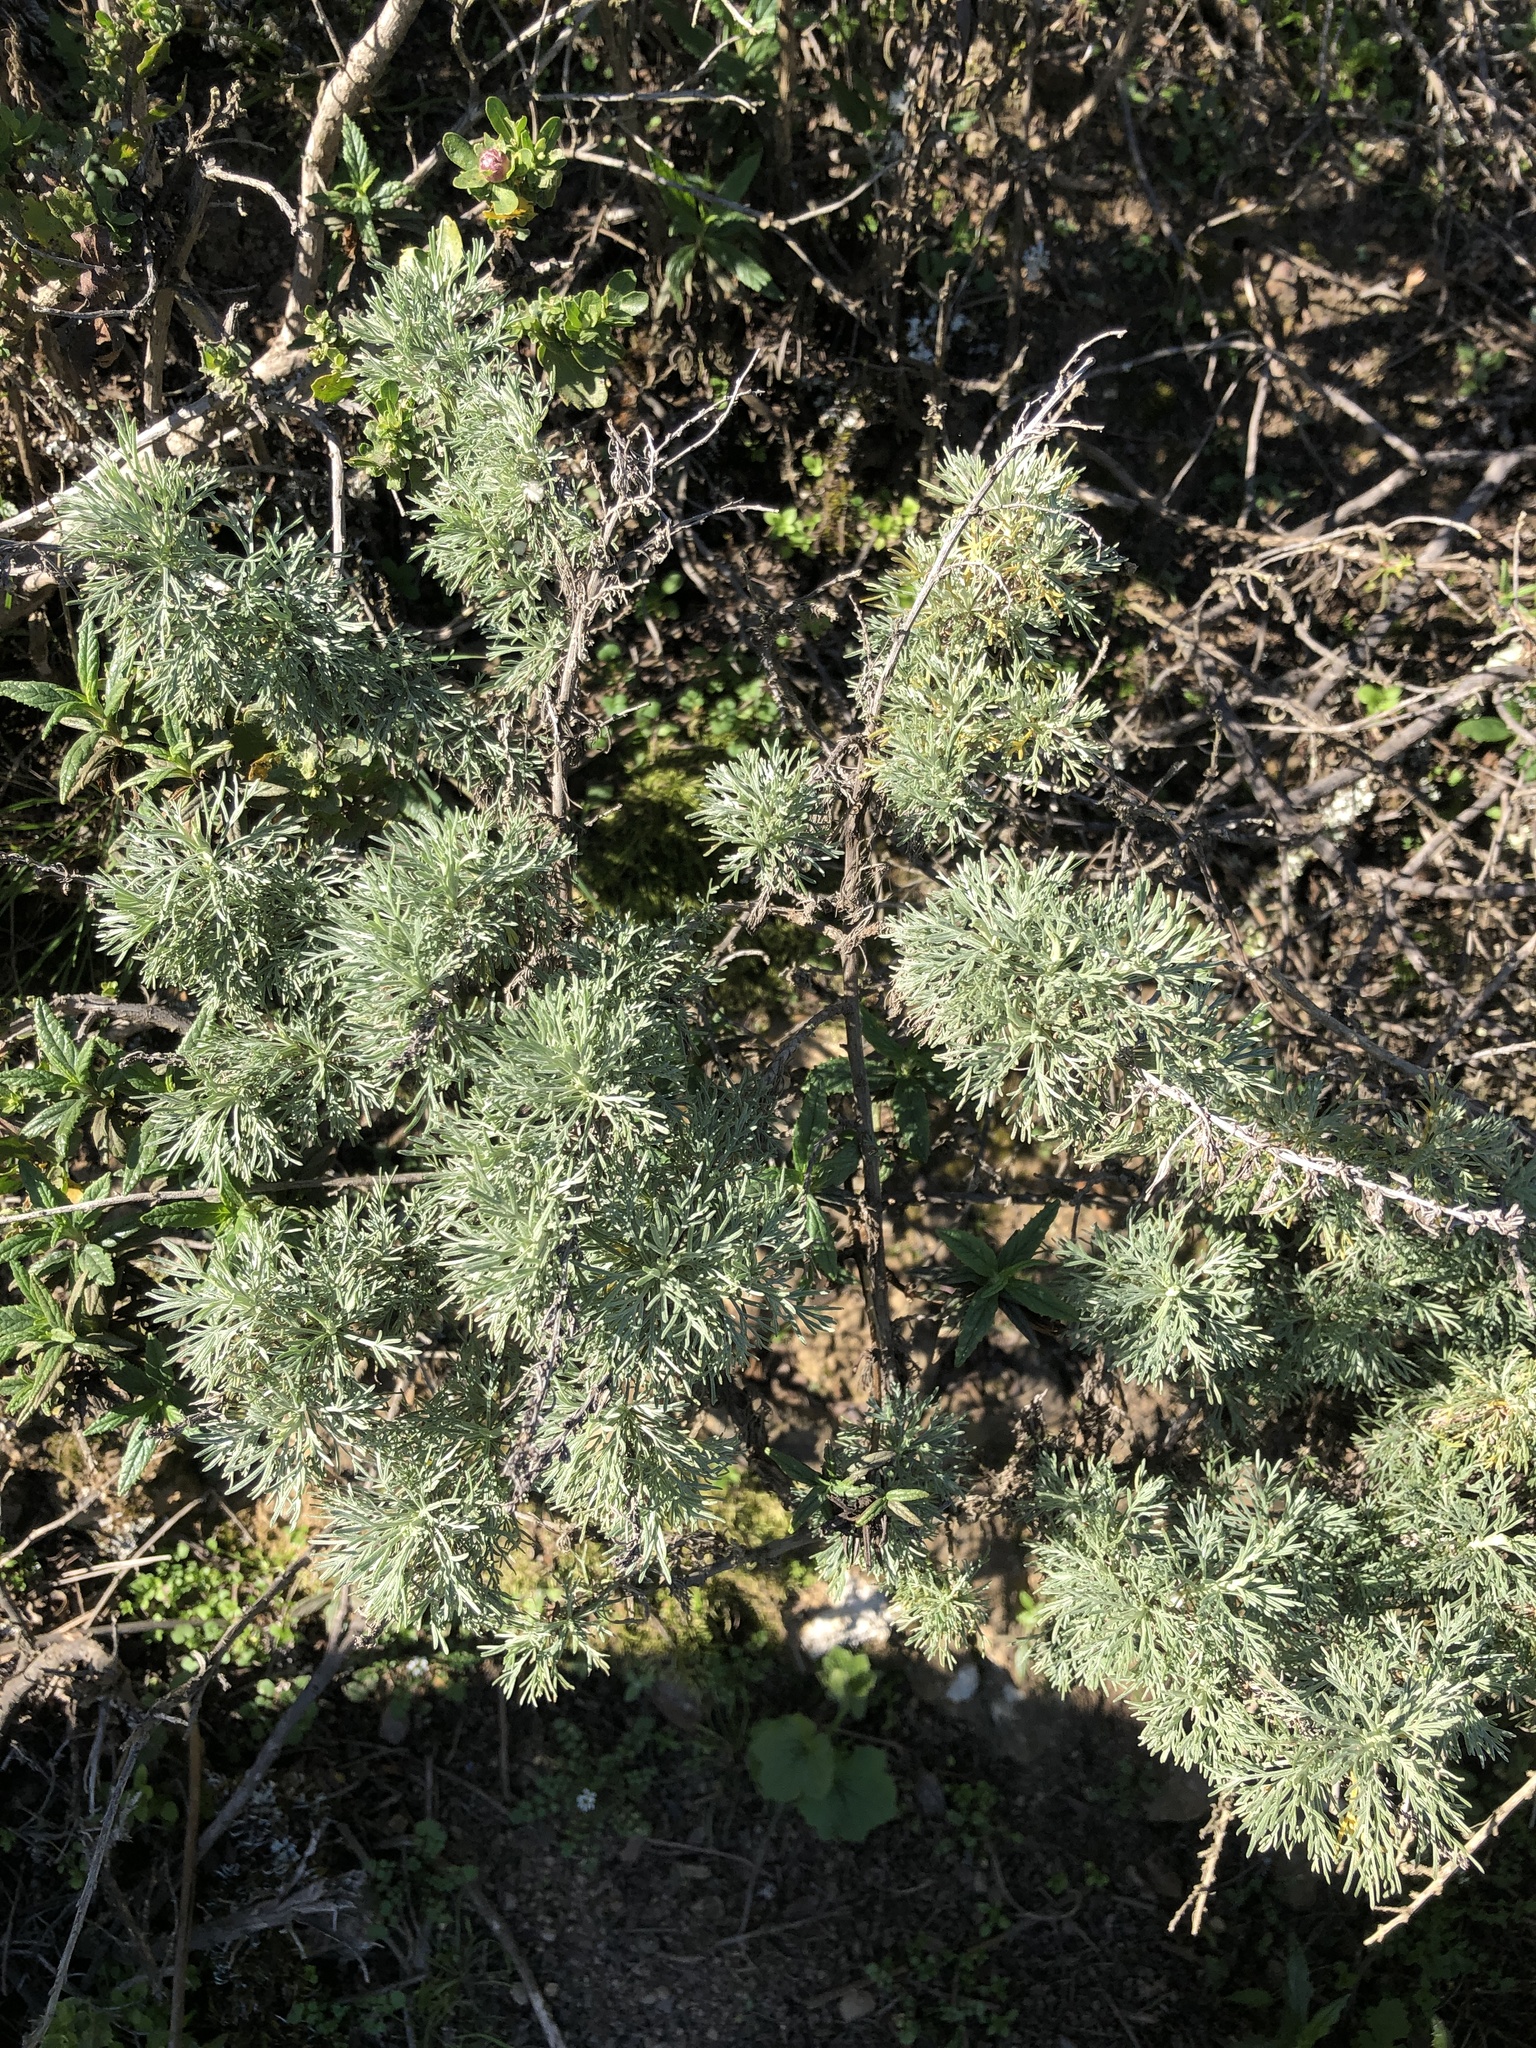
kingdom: Plantae
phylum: Tracheophyta
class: Magnoliopsida
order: Asterales
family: Asteraceae
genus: Artemisia
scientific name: Artemisia californica
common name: California sagebrush
